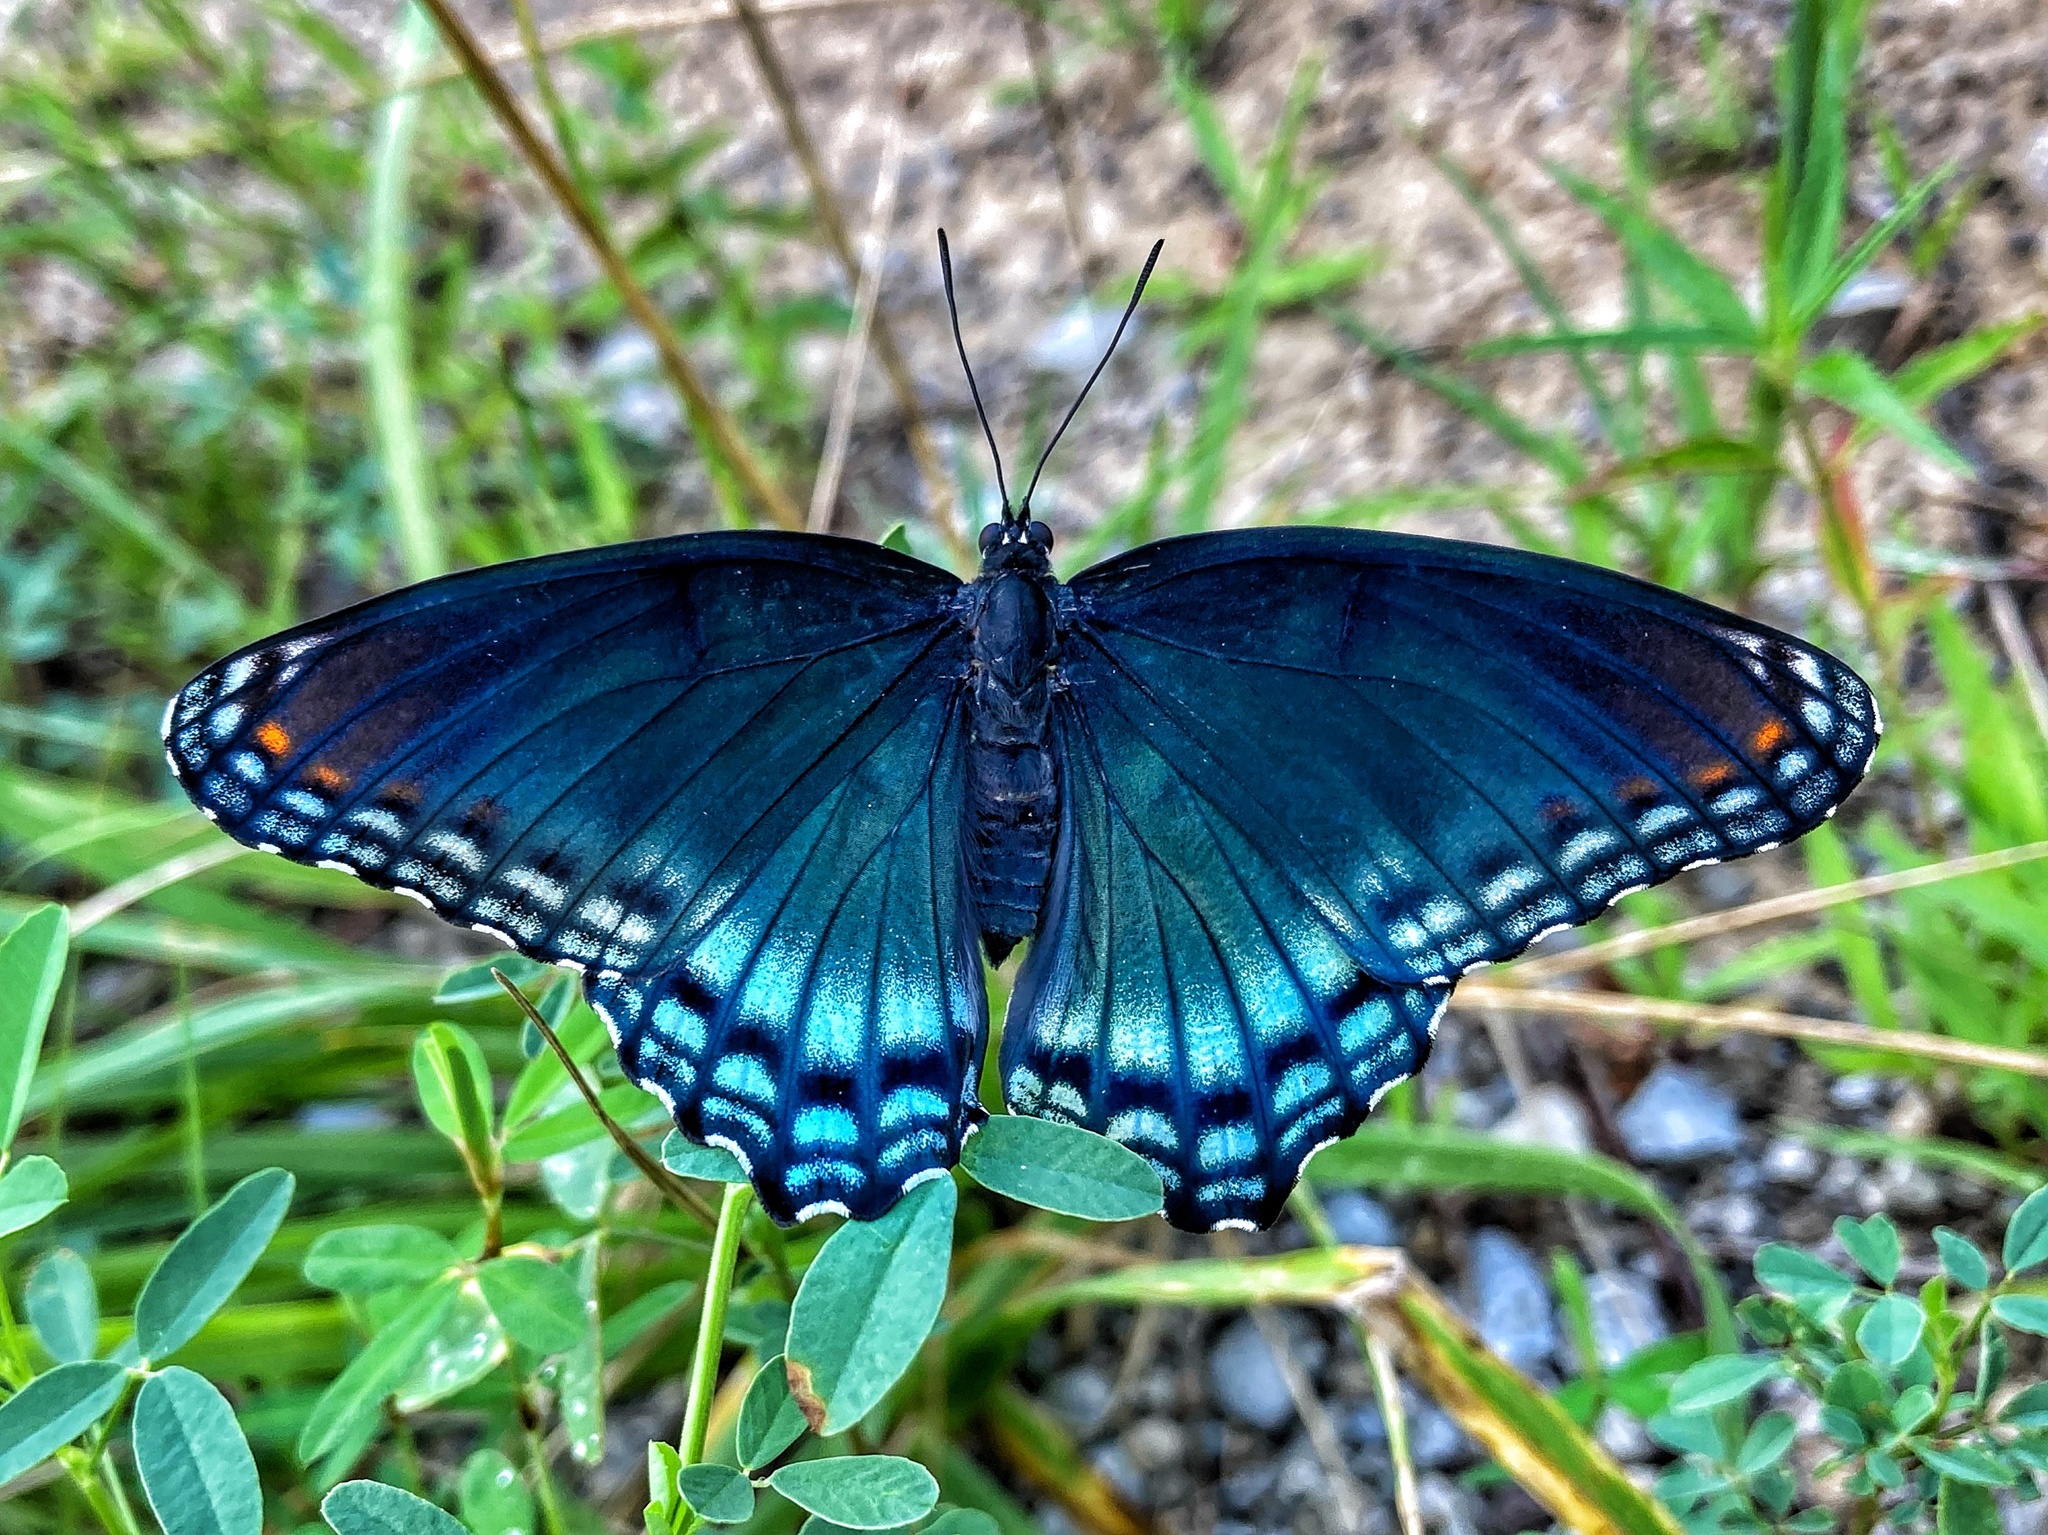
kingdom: Animalia
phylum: Arthropoda
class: Insecta
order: Lepidoptera
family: Nymphalidae
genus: Limenitis
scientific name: Limenitis astyanax
